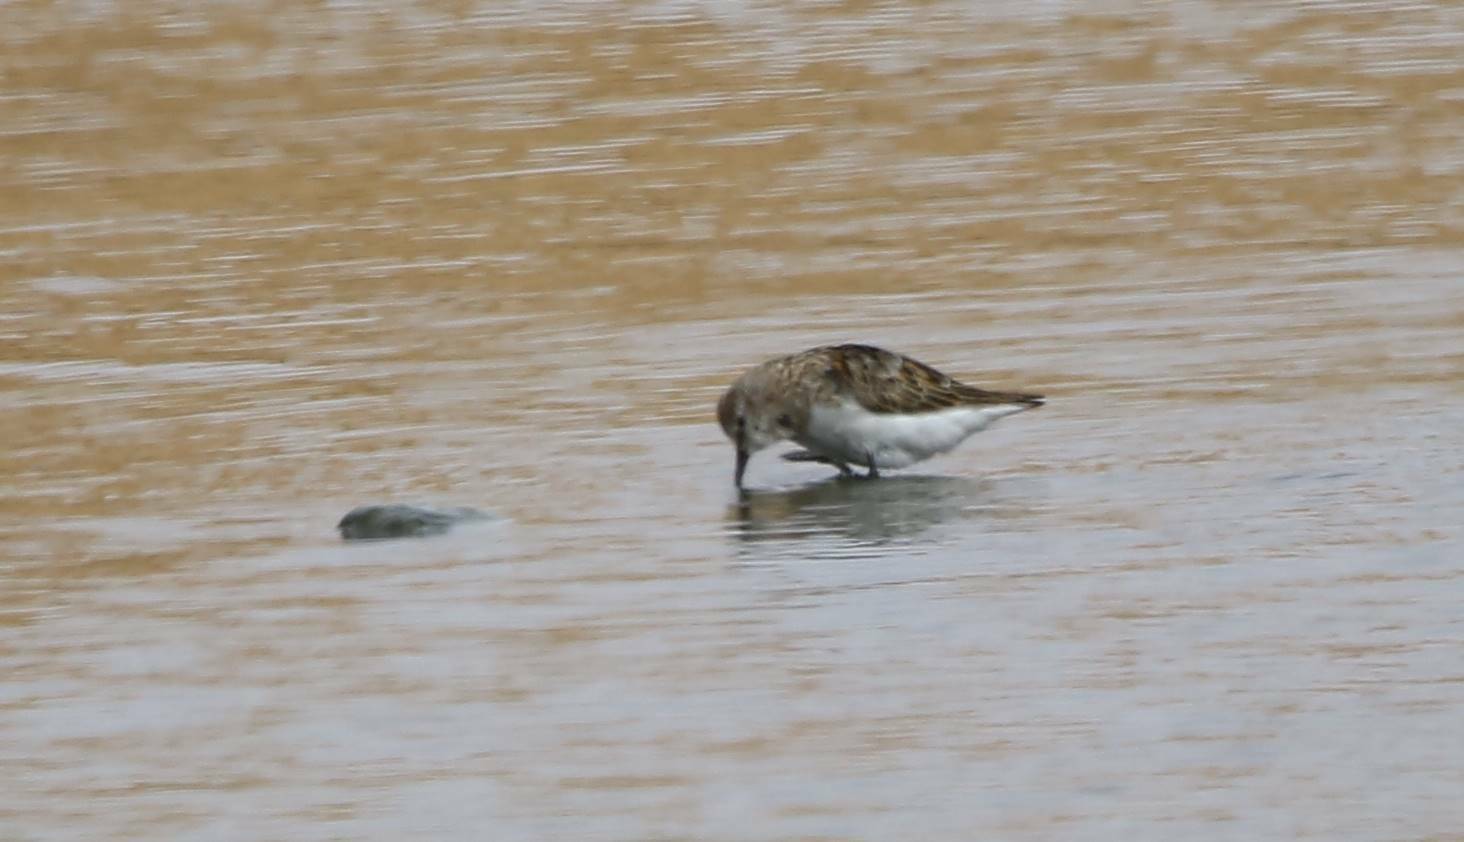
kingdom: Animalia
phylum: Chordata
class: Aves
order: Charadriiformes
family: Scolopacidae
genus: Calidris
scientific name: Calidris minuta
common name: Little stint
